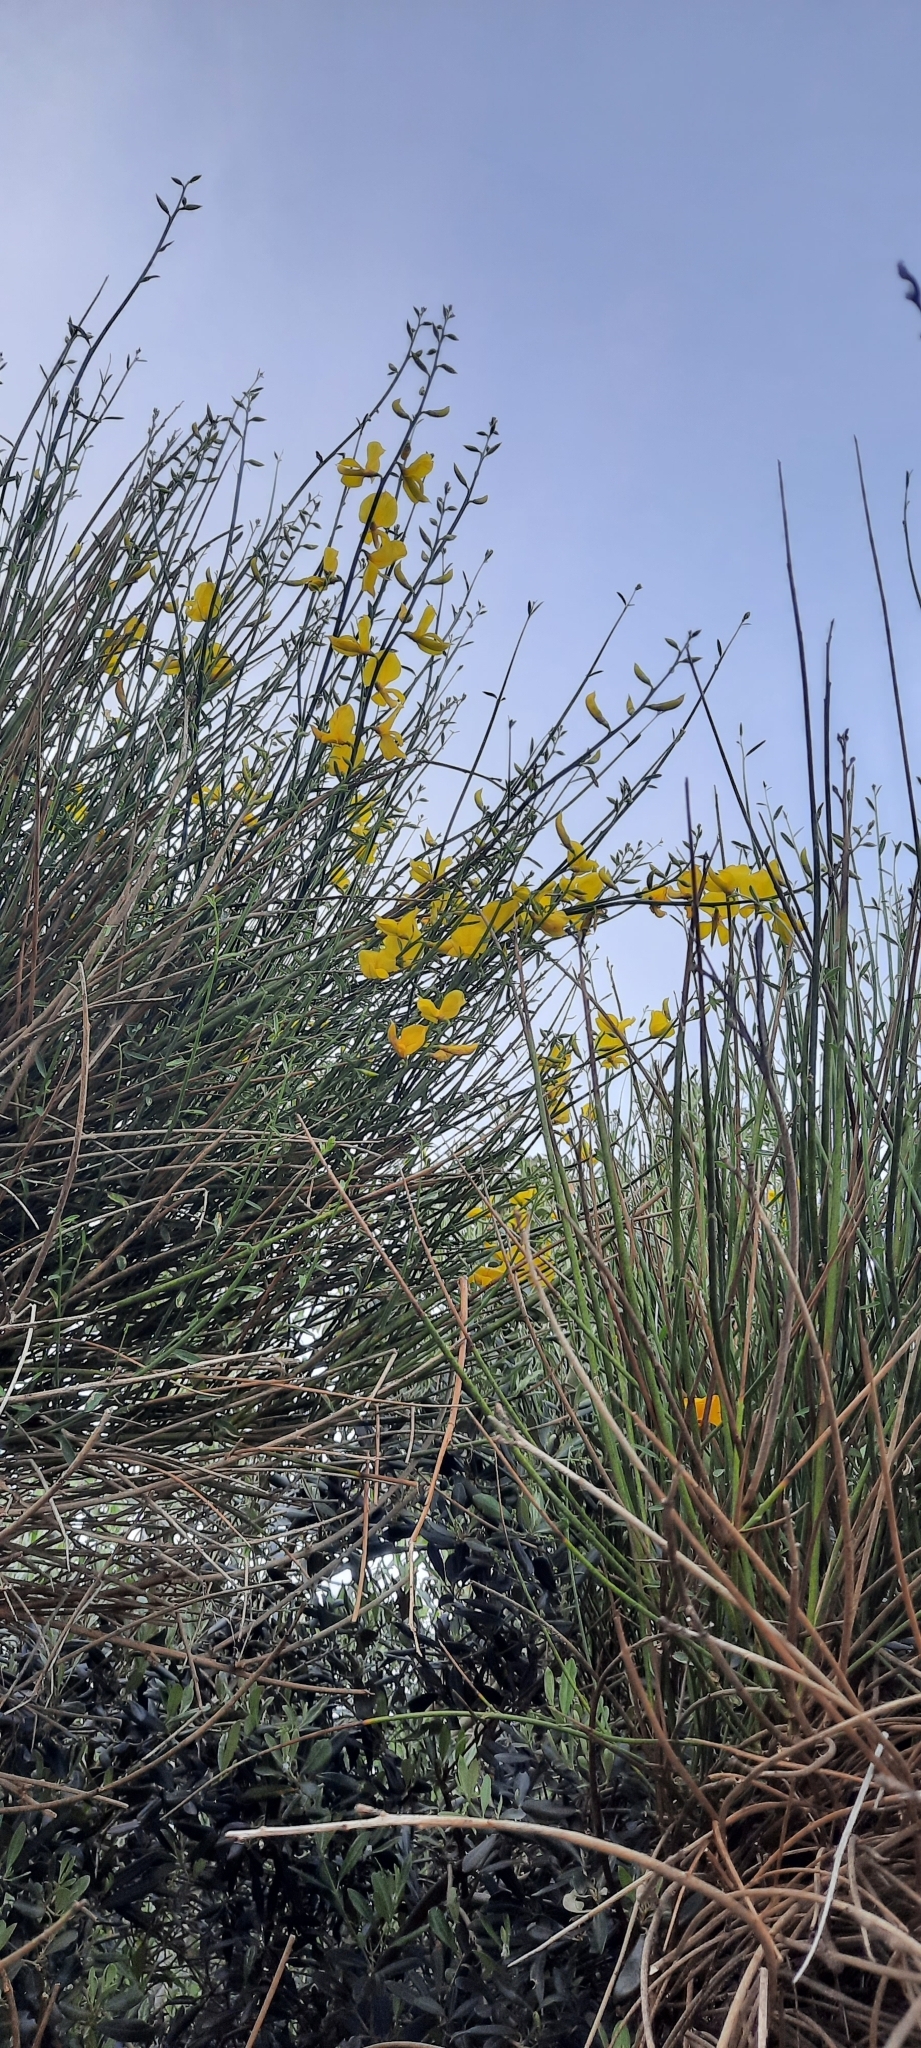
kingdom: Plantae
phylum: Tracheophyta
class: Magnoliopsida
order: Fabales
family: Fabaceae
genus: Spartium
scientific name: Spartium junceum
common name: Spanish broom
